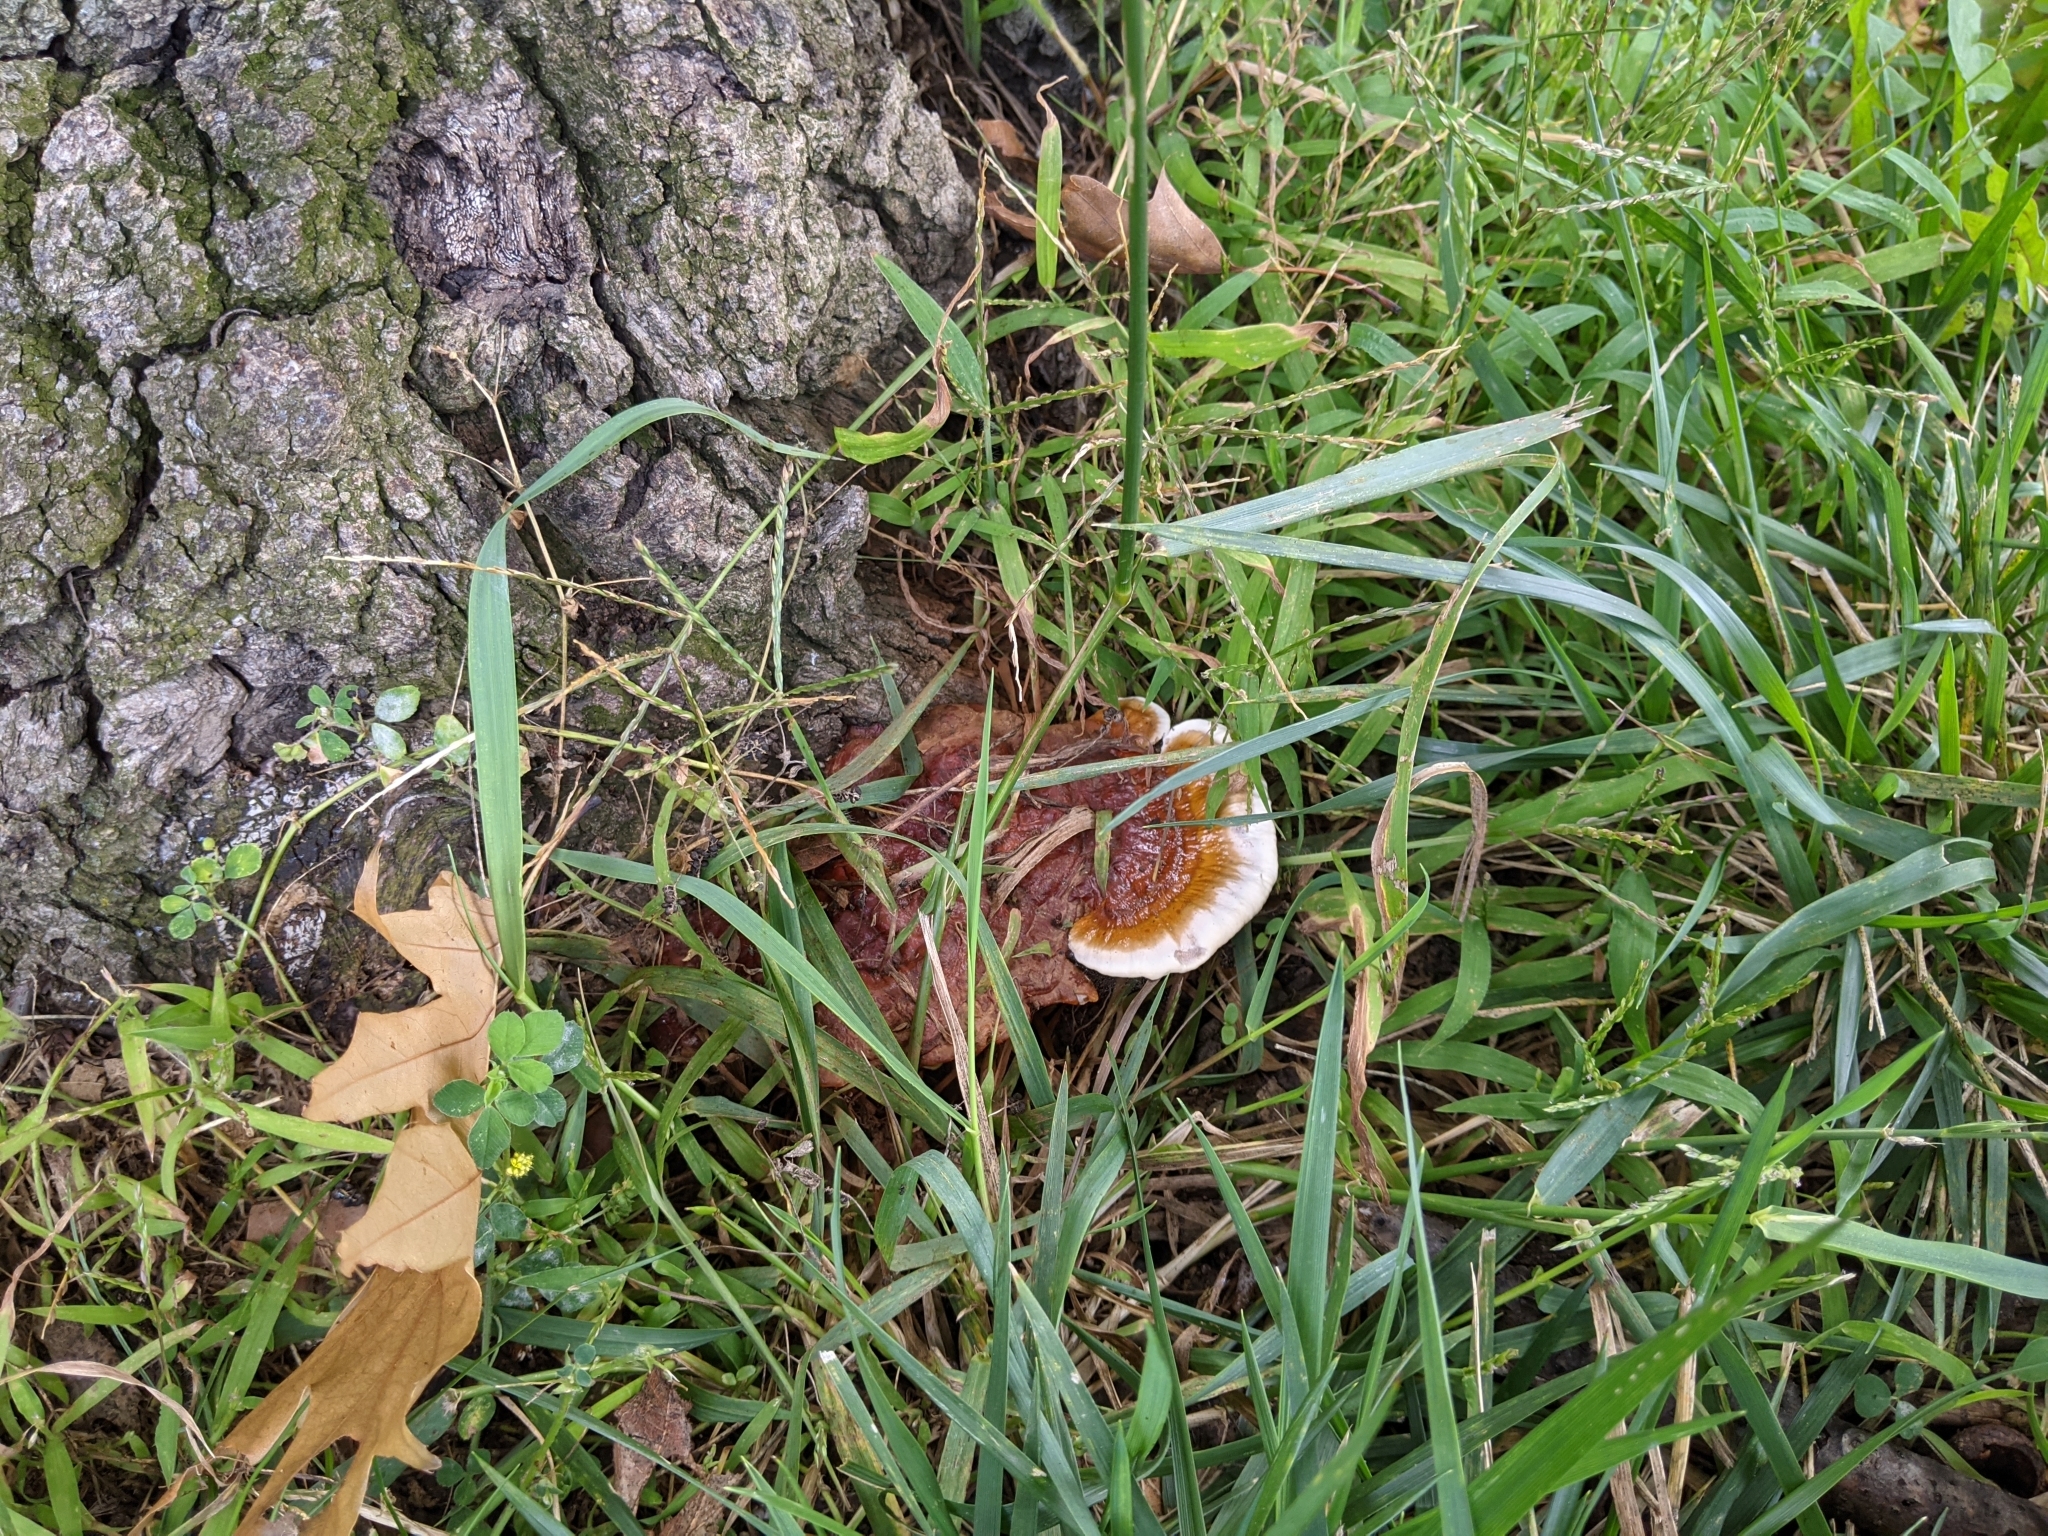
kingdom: Fungi
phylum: Basidiomycota
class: Agaricomycetes
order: Polyporales
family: Polyporaceae
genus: Ganoderma
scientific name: Ganoderma resinaceum
